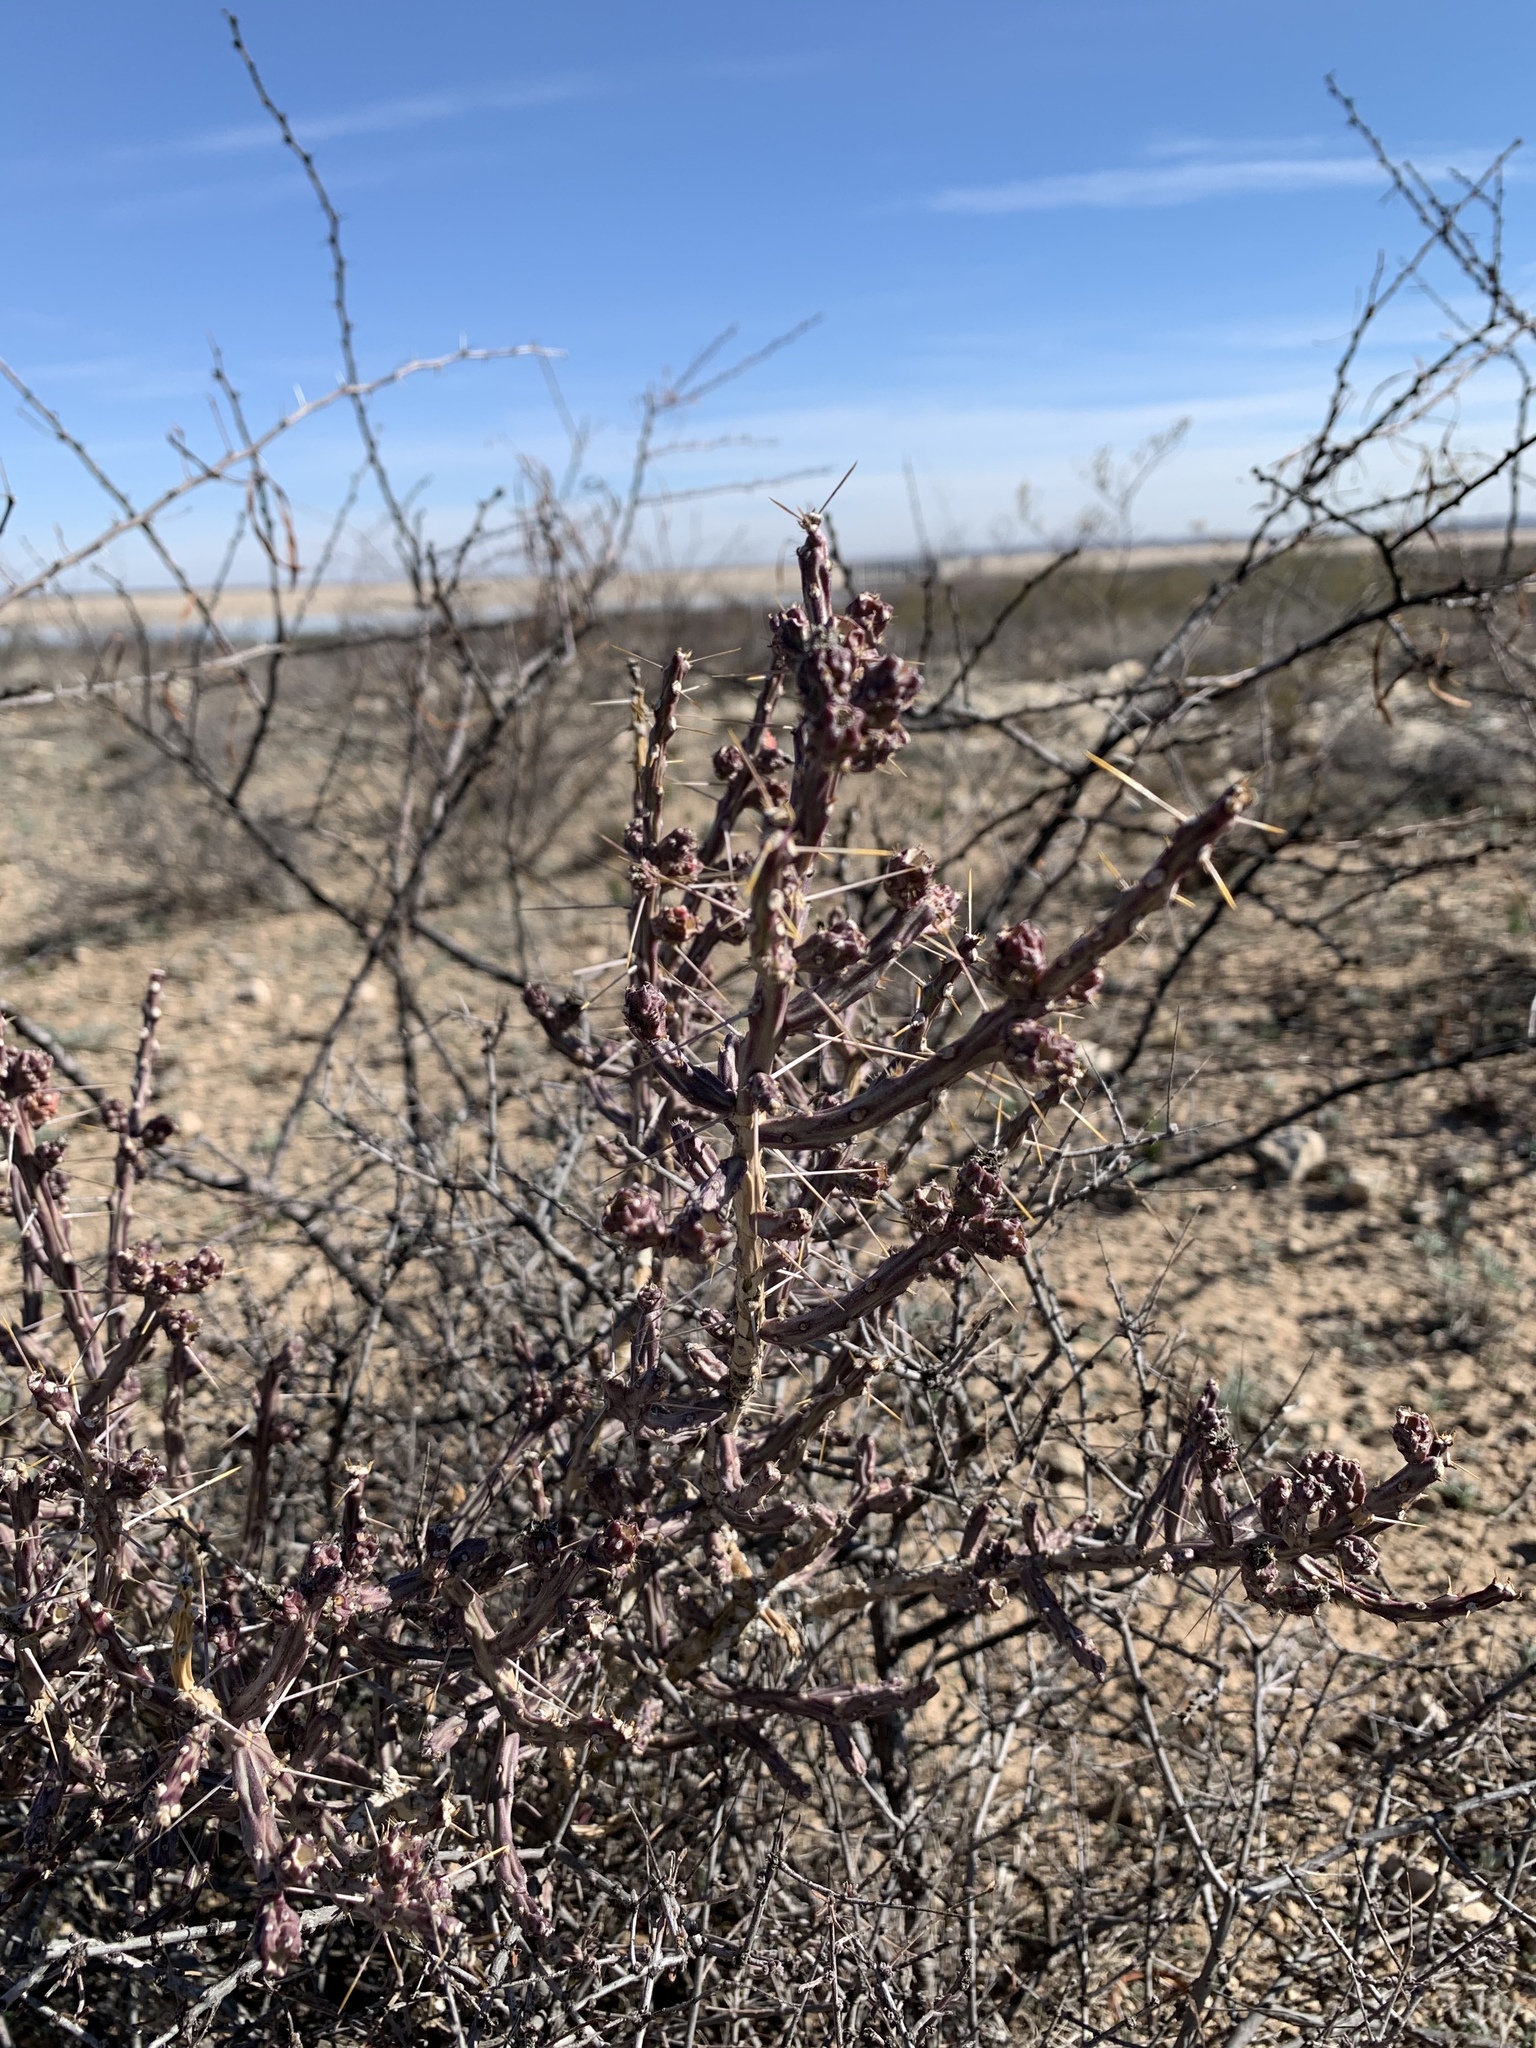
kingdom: Plantae
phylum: Tracheophyta
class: Magnoliopsida
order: Caryophyllales
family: Cactaceae
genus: Cylindropuntia
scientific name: Cylindropuntia leptocaulis
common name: Christmas cactus
